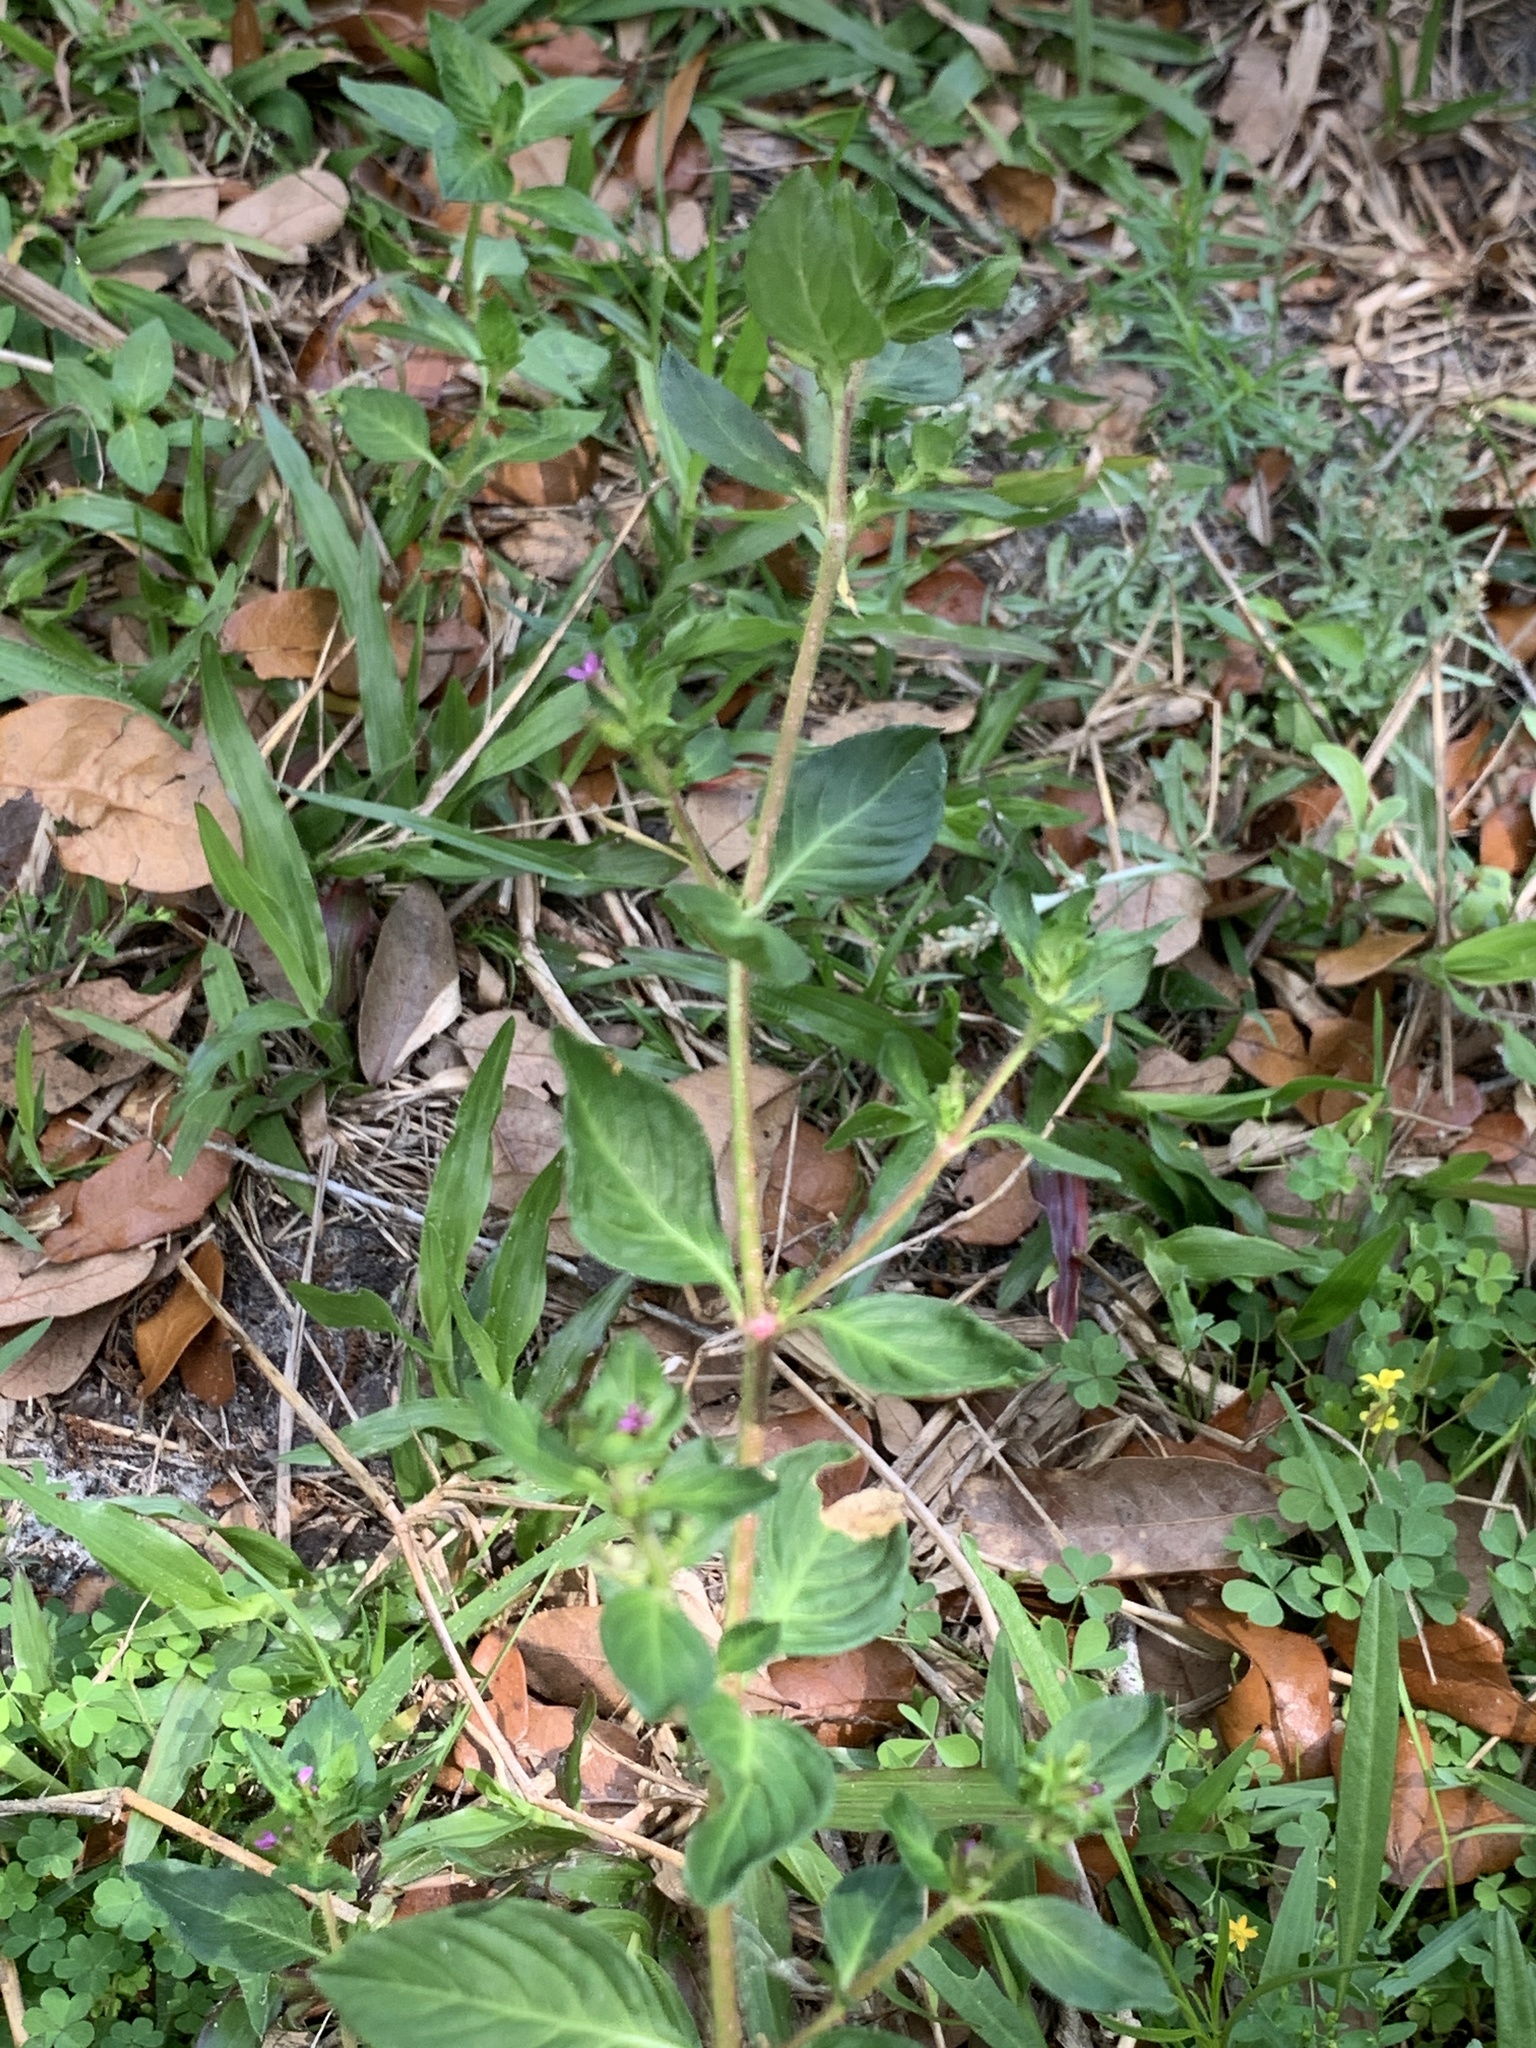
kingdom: Plantae
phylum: Tracheophyta
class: Magnoliopsida
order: Myrtales
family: Lythraceae
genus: Cuphea
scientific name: Cuphea carthagenensis
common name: Colombian waxweed
